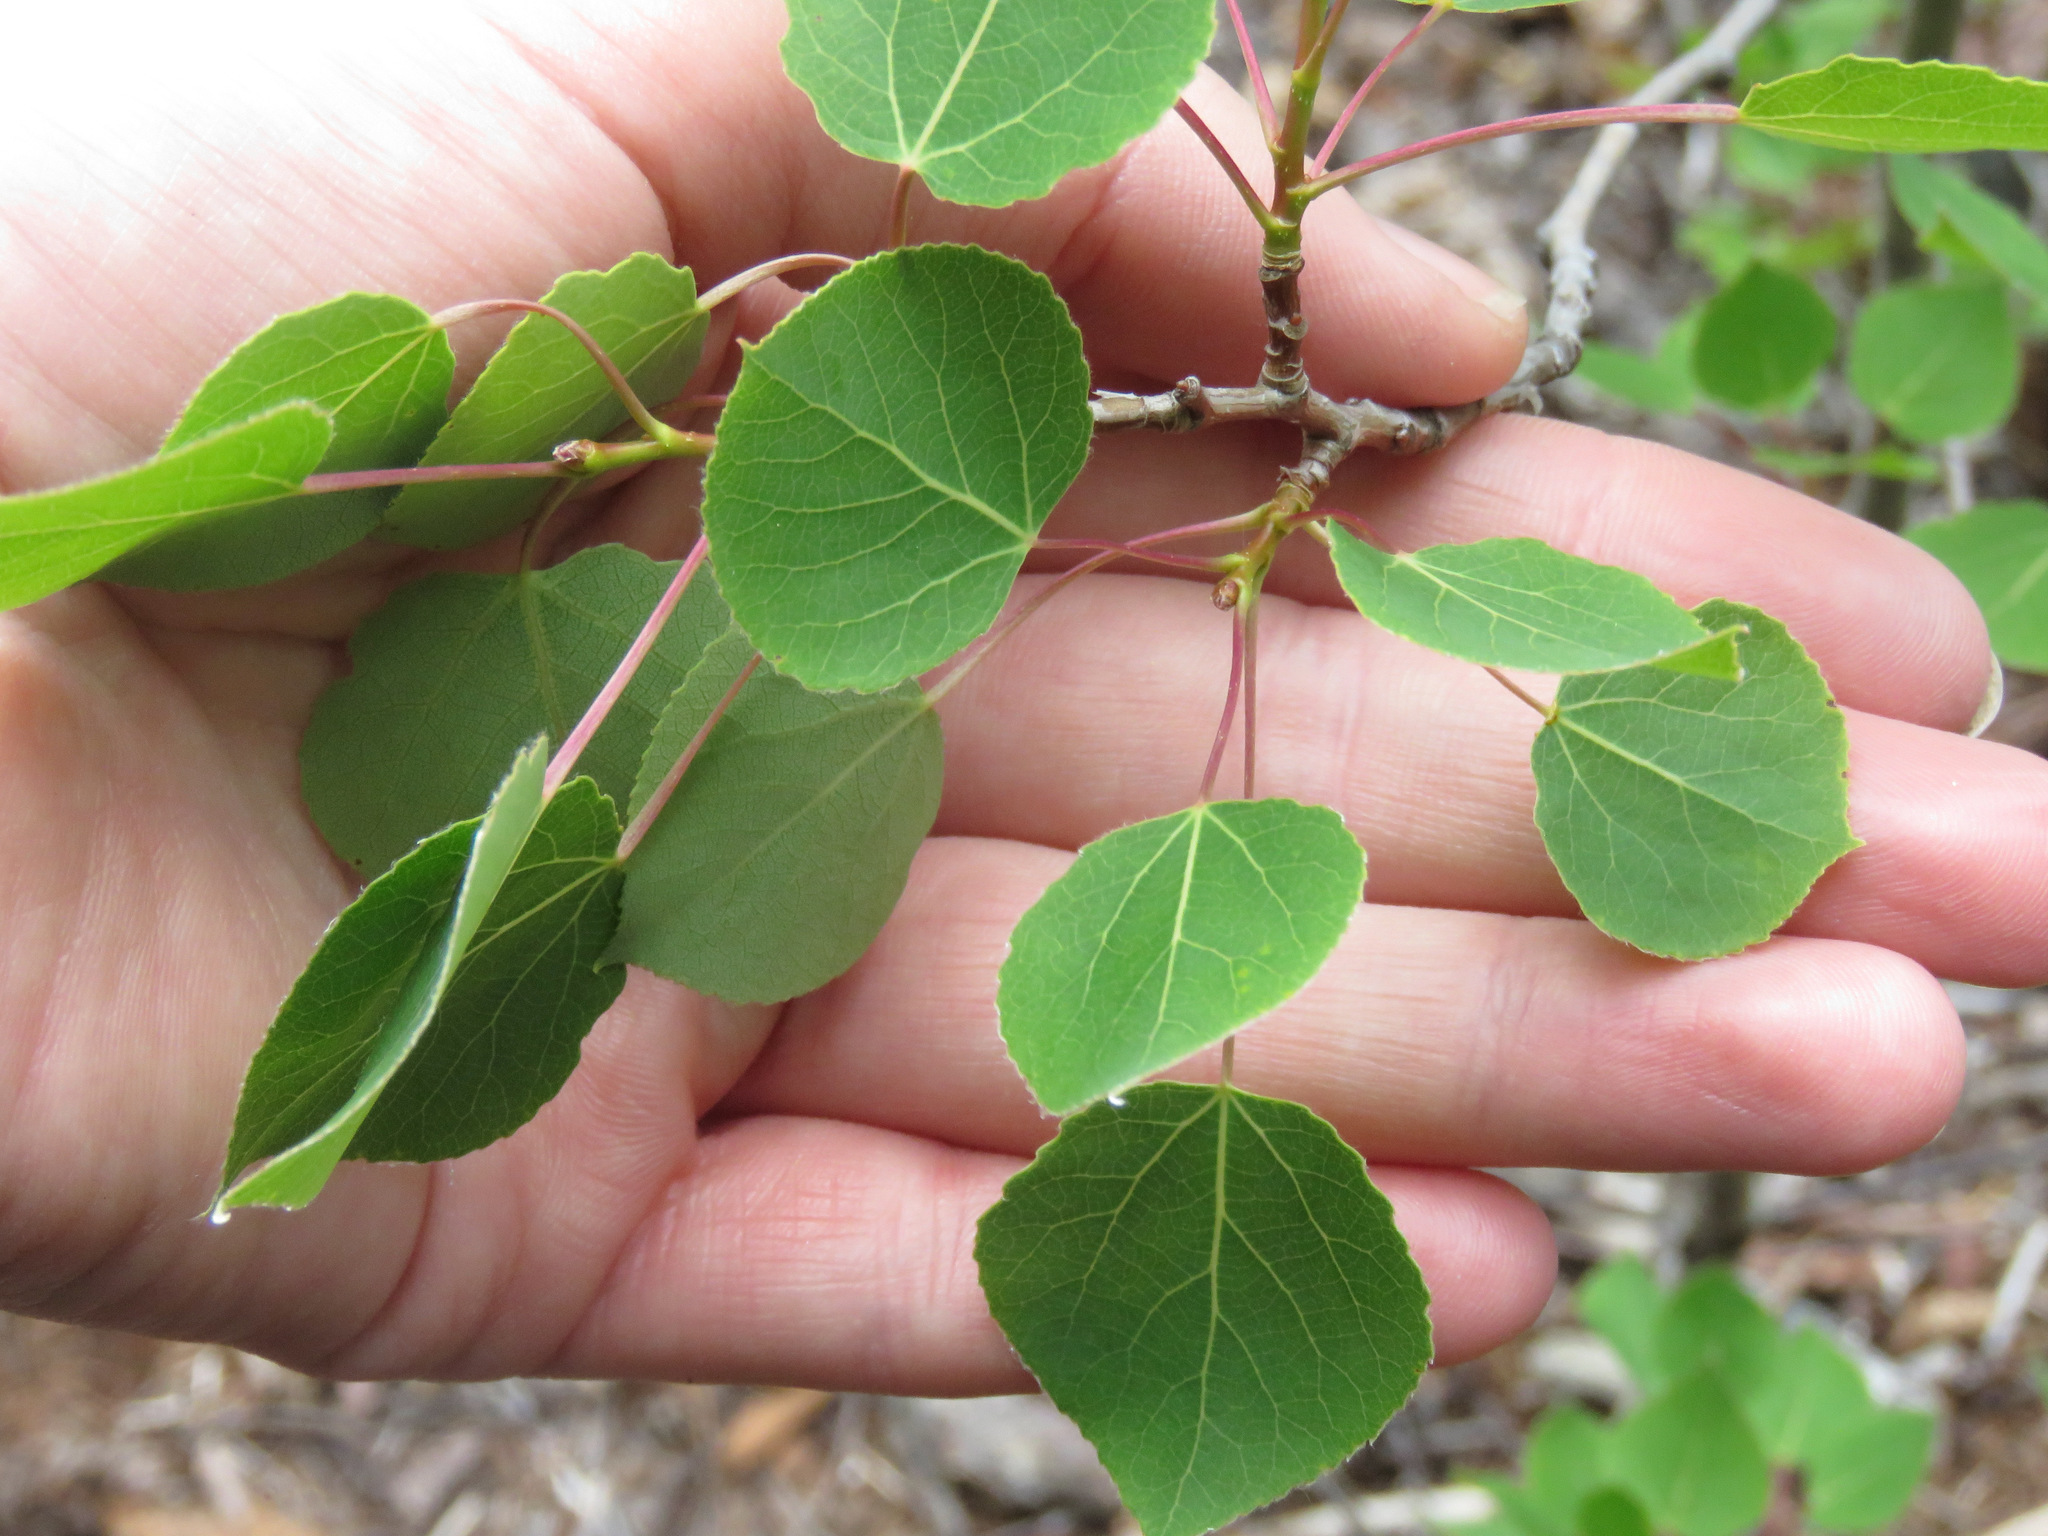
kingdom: Plantae
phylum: Tracheophyta
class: Magnoliopsida
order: Malpighiales
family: Salicaceae
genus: Populus
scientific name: Populus tremuloides
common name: Quaking aspen
